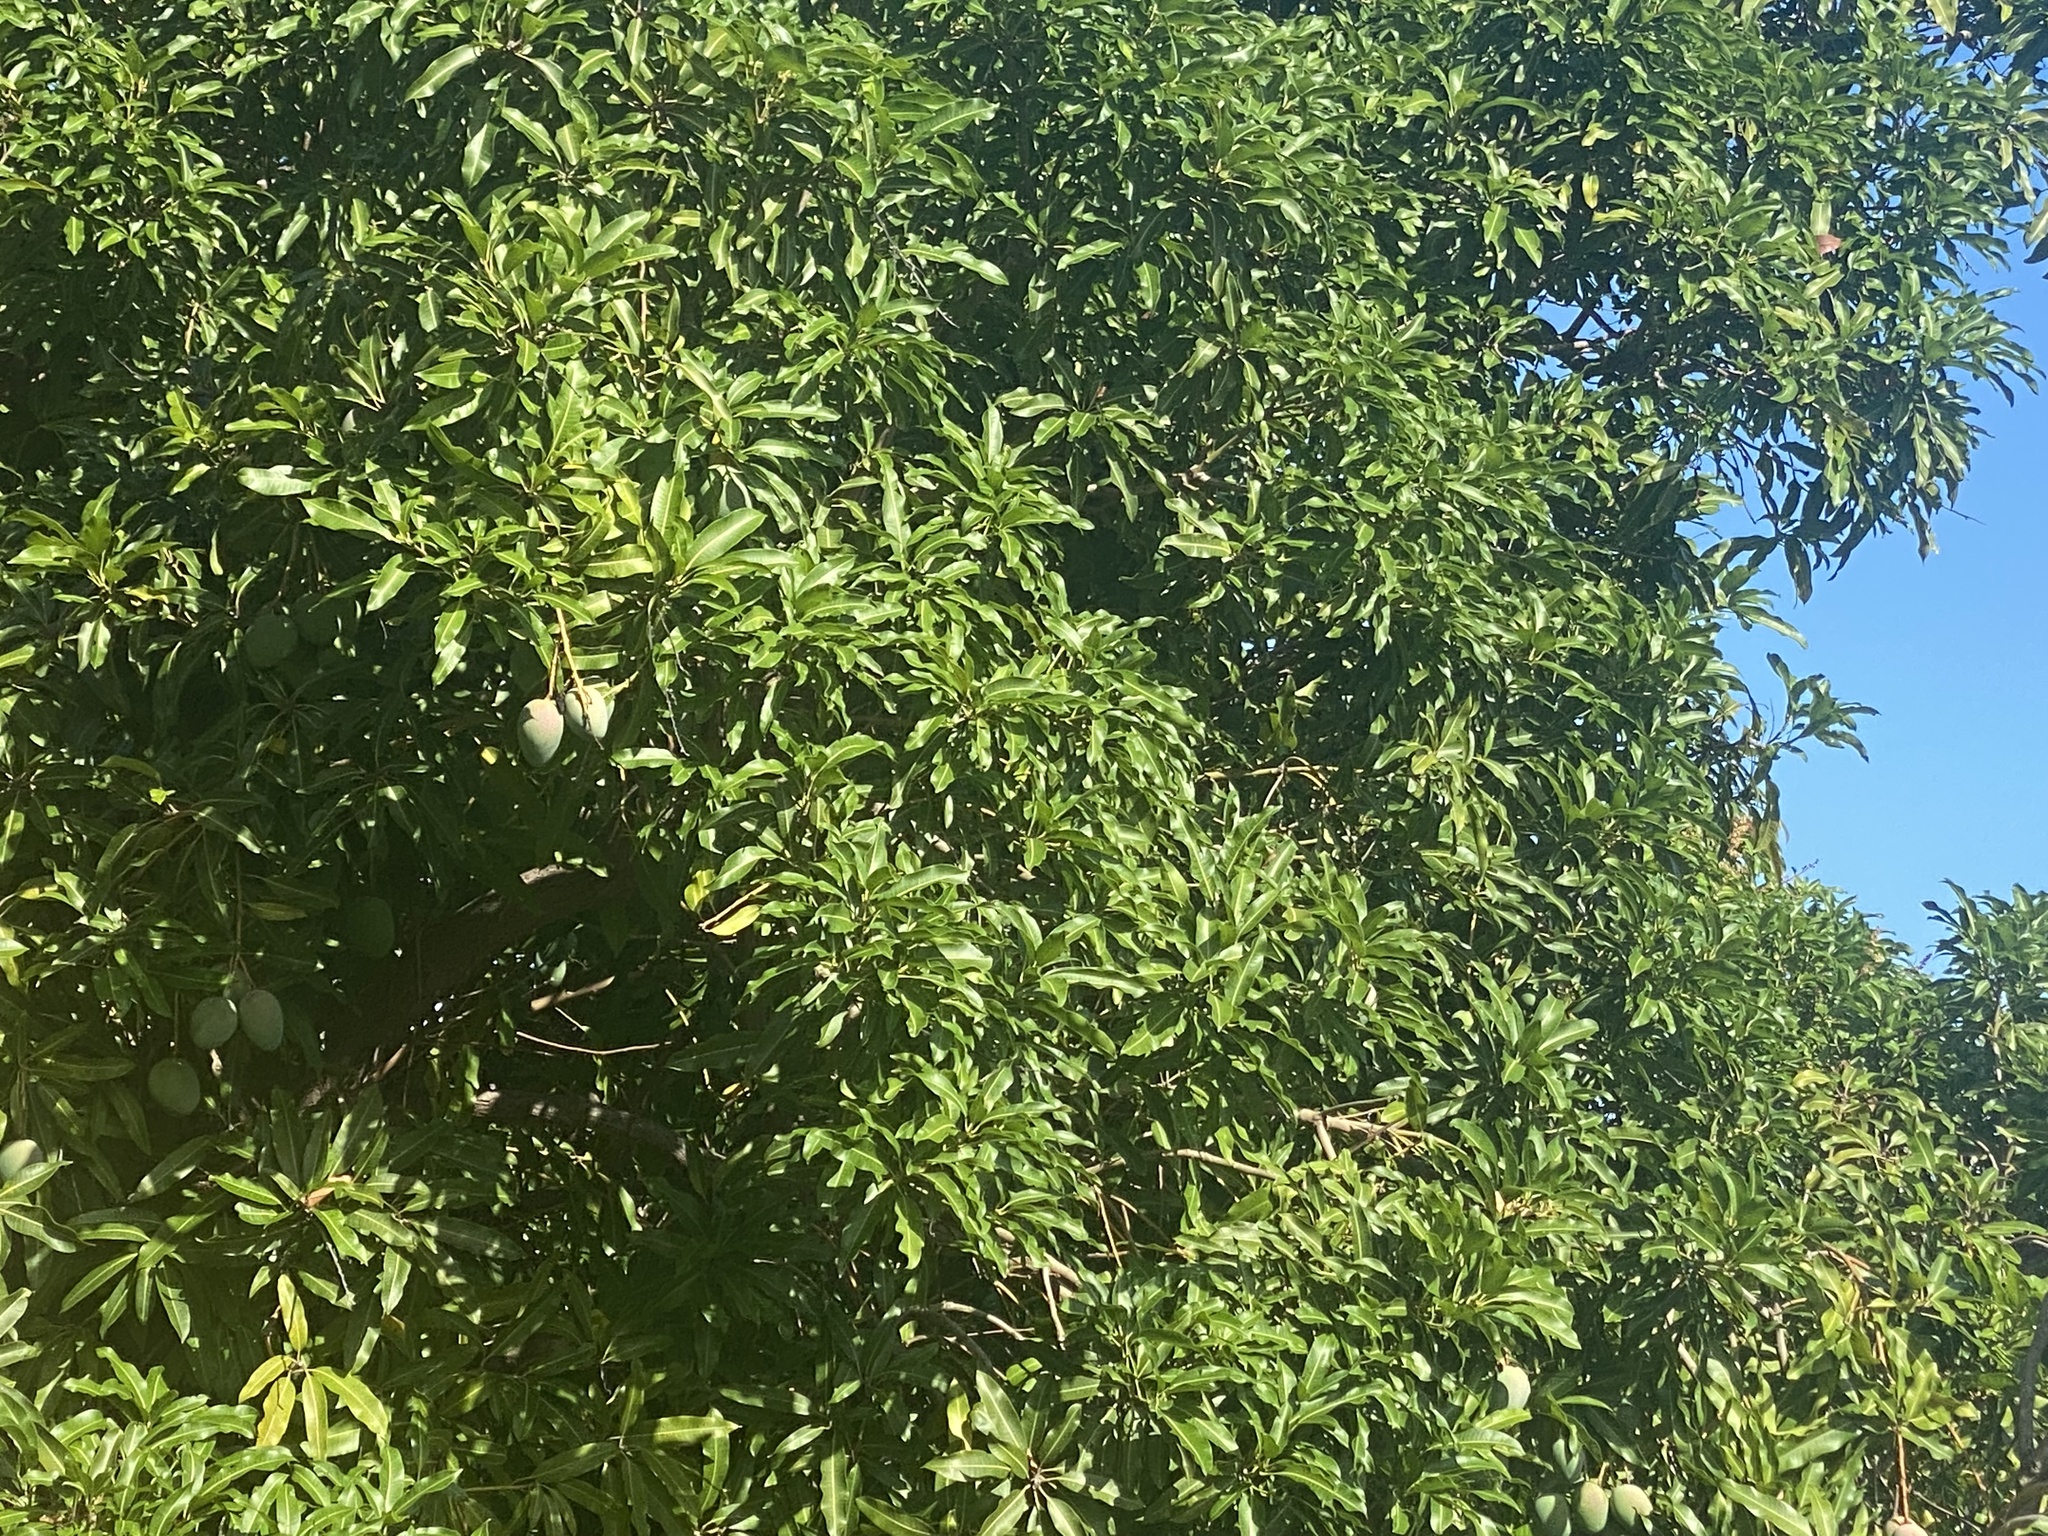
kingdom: Plantae
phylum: Tracheophyta
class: Magnoliopsida
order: Sapindales
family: Anacardiaceae
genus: Mangifera
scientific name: Mangifera indica
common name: Mango
